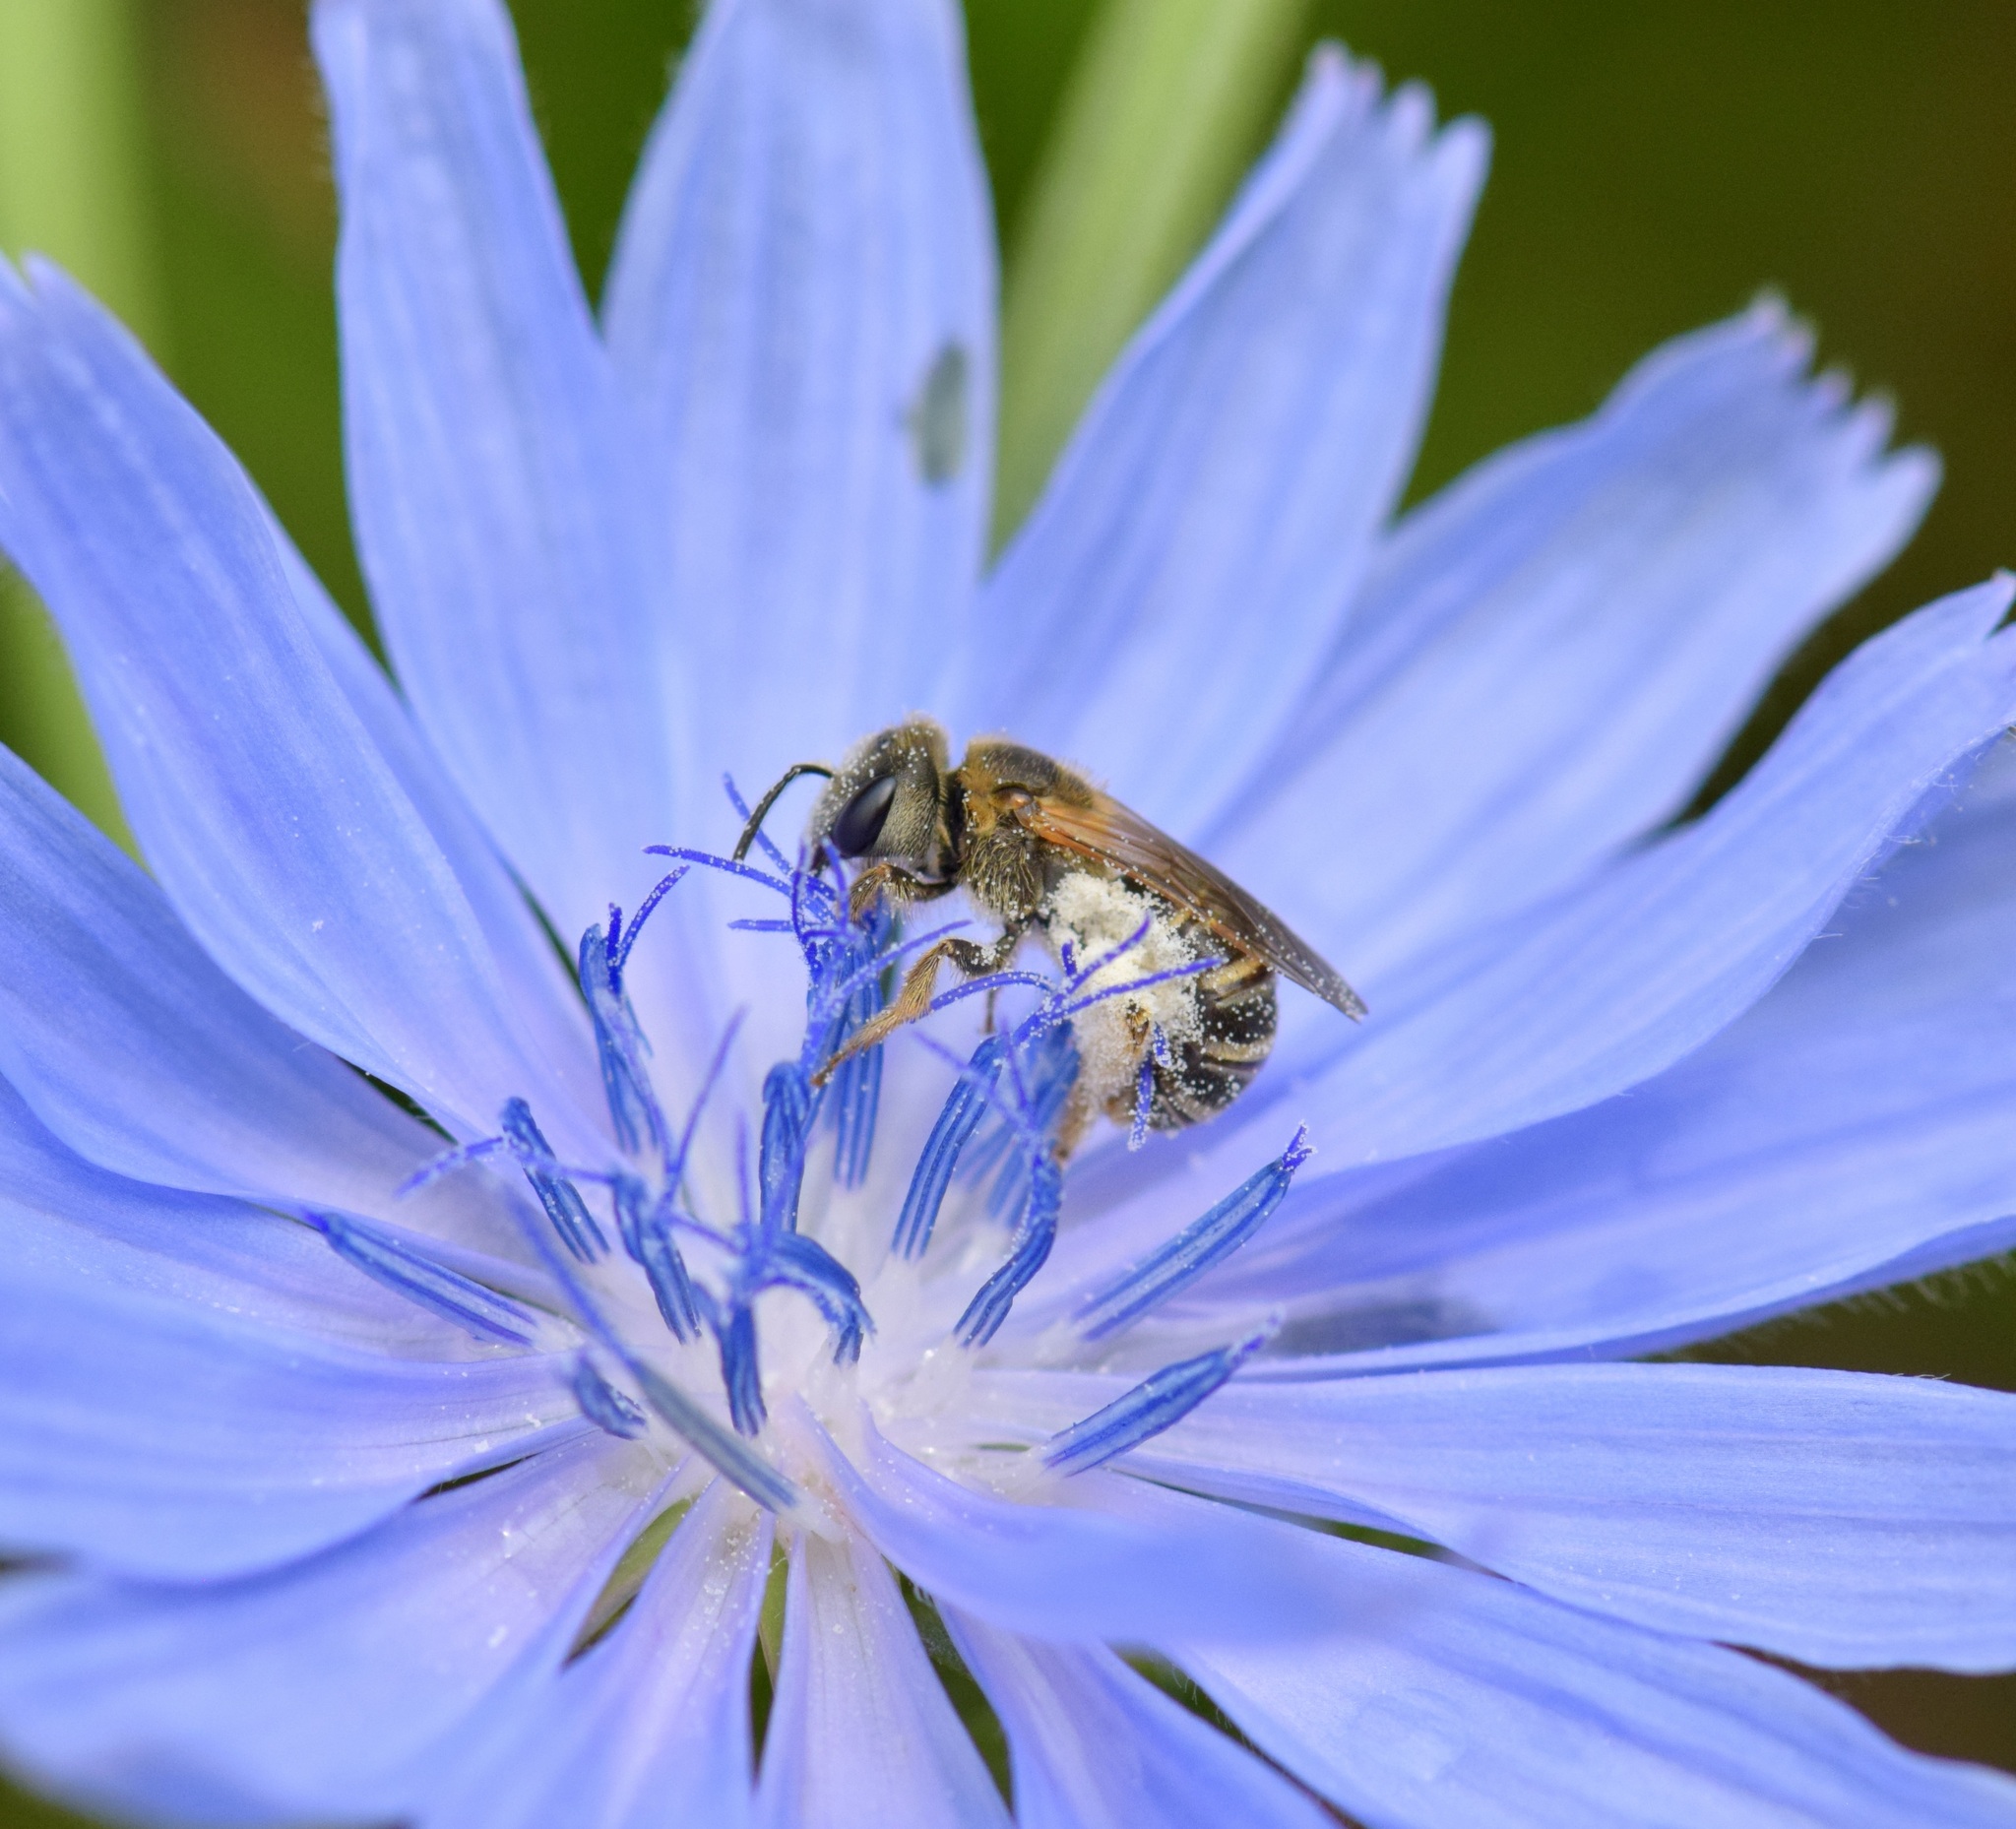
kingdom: Animalia
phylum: Arthropoda
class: Insecta
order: Hymenoptera
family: Halictidae
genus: Halictus
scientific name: Halictus ligatus
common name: Ligated furrow bee
